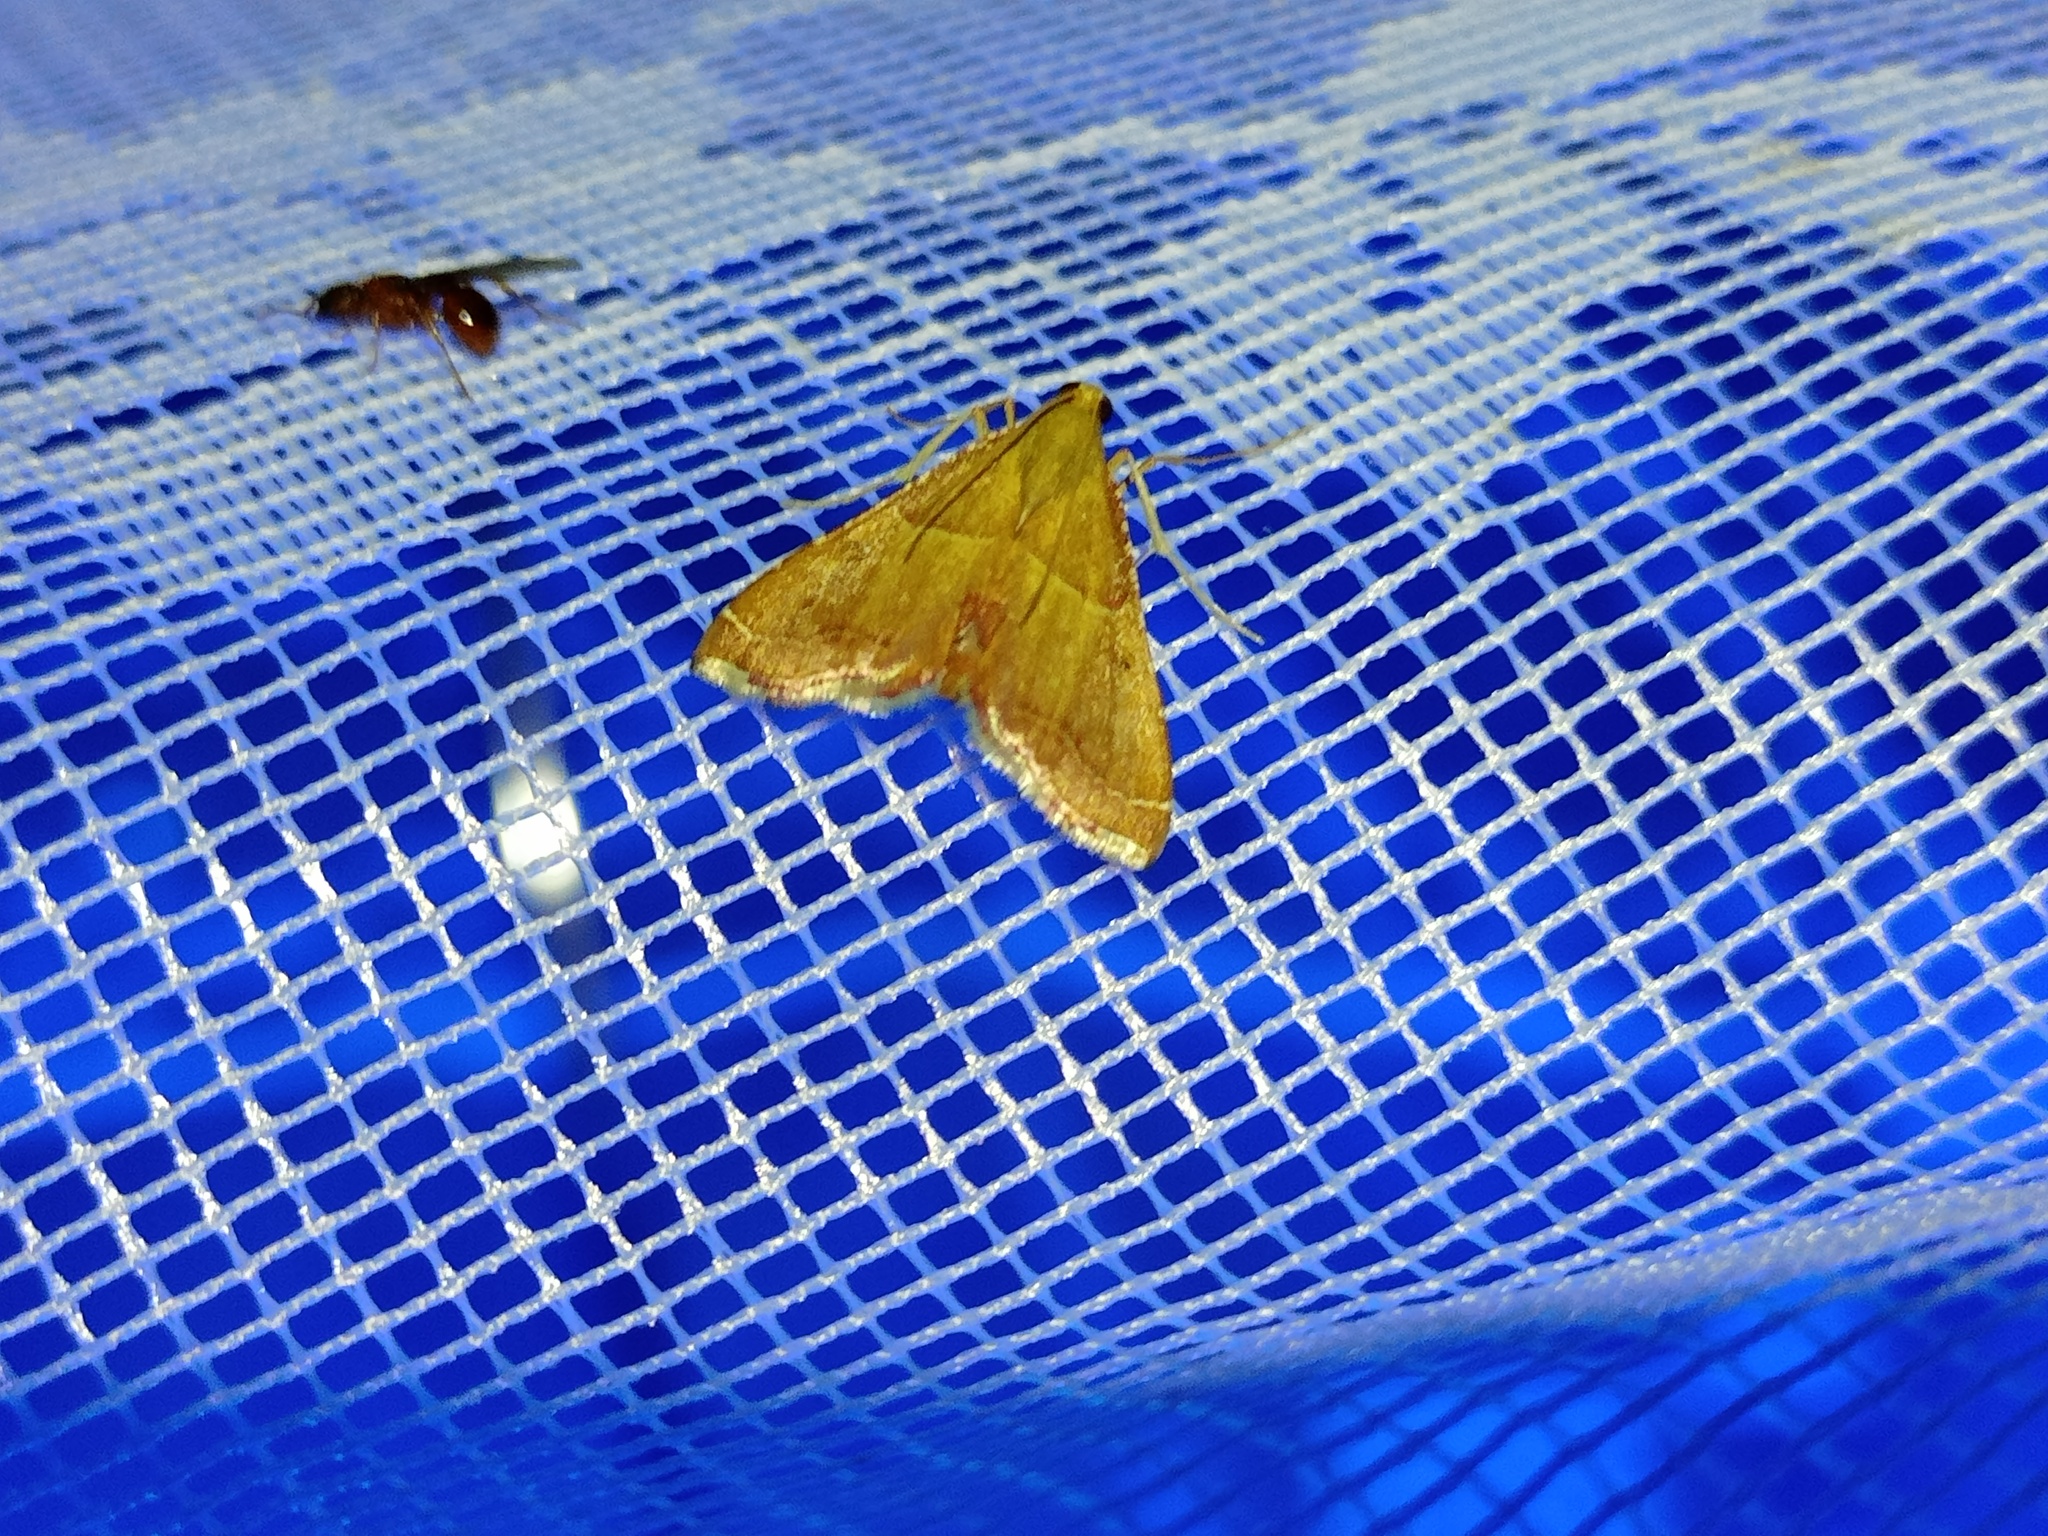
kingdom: Animalia
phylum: Arthropoda
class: Insecta
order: Lepidoptera
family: Pyralidae
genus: Endotricha
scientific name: Endotricha flammealis
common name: Rosy tabby
